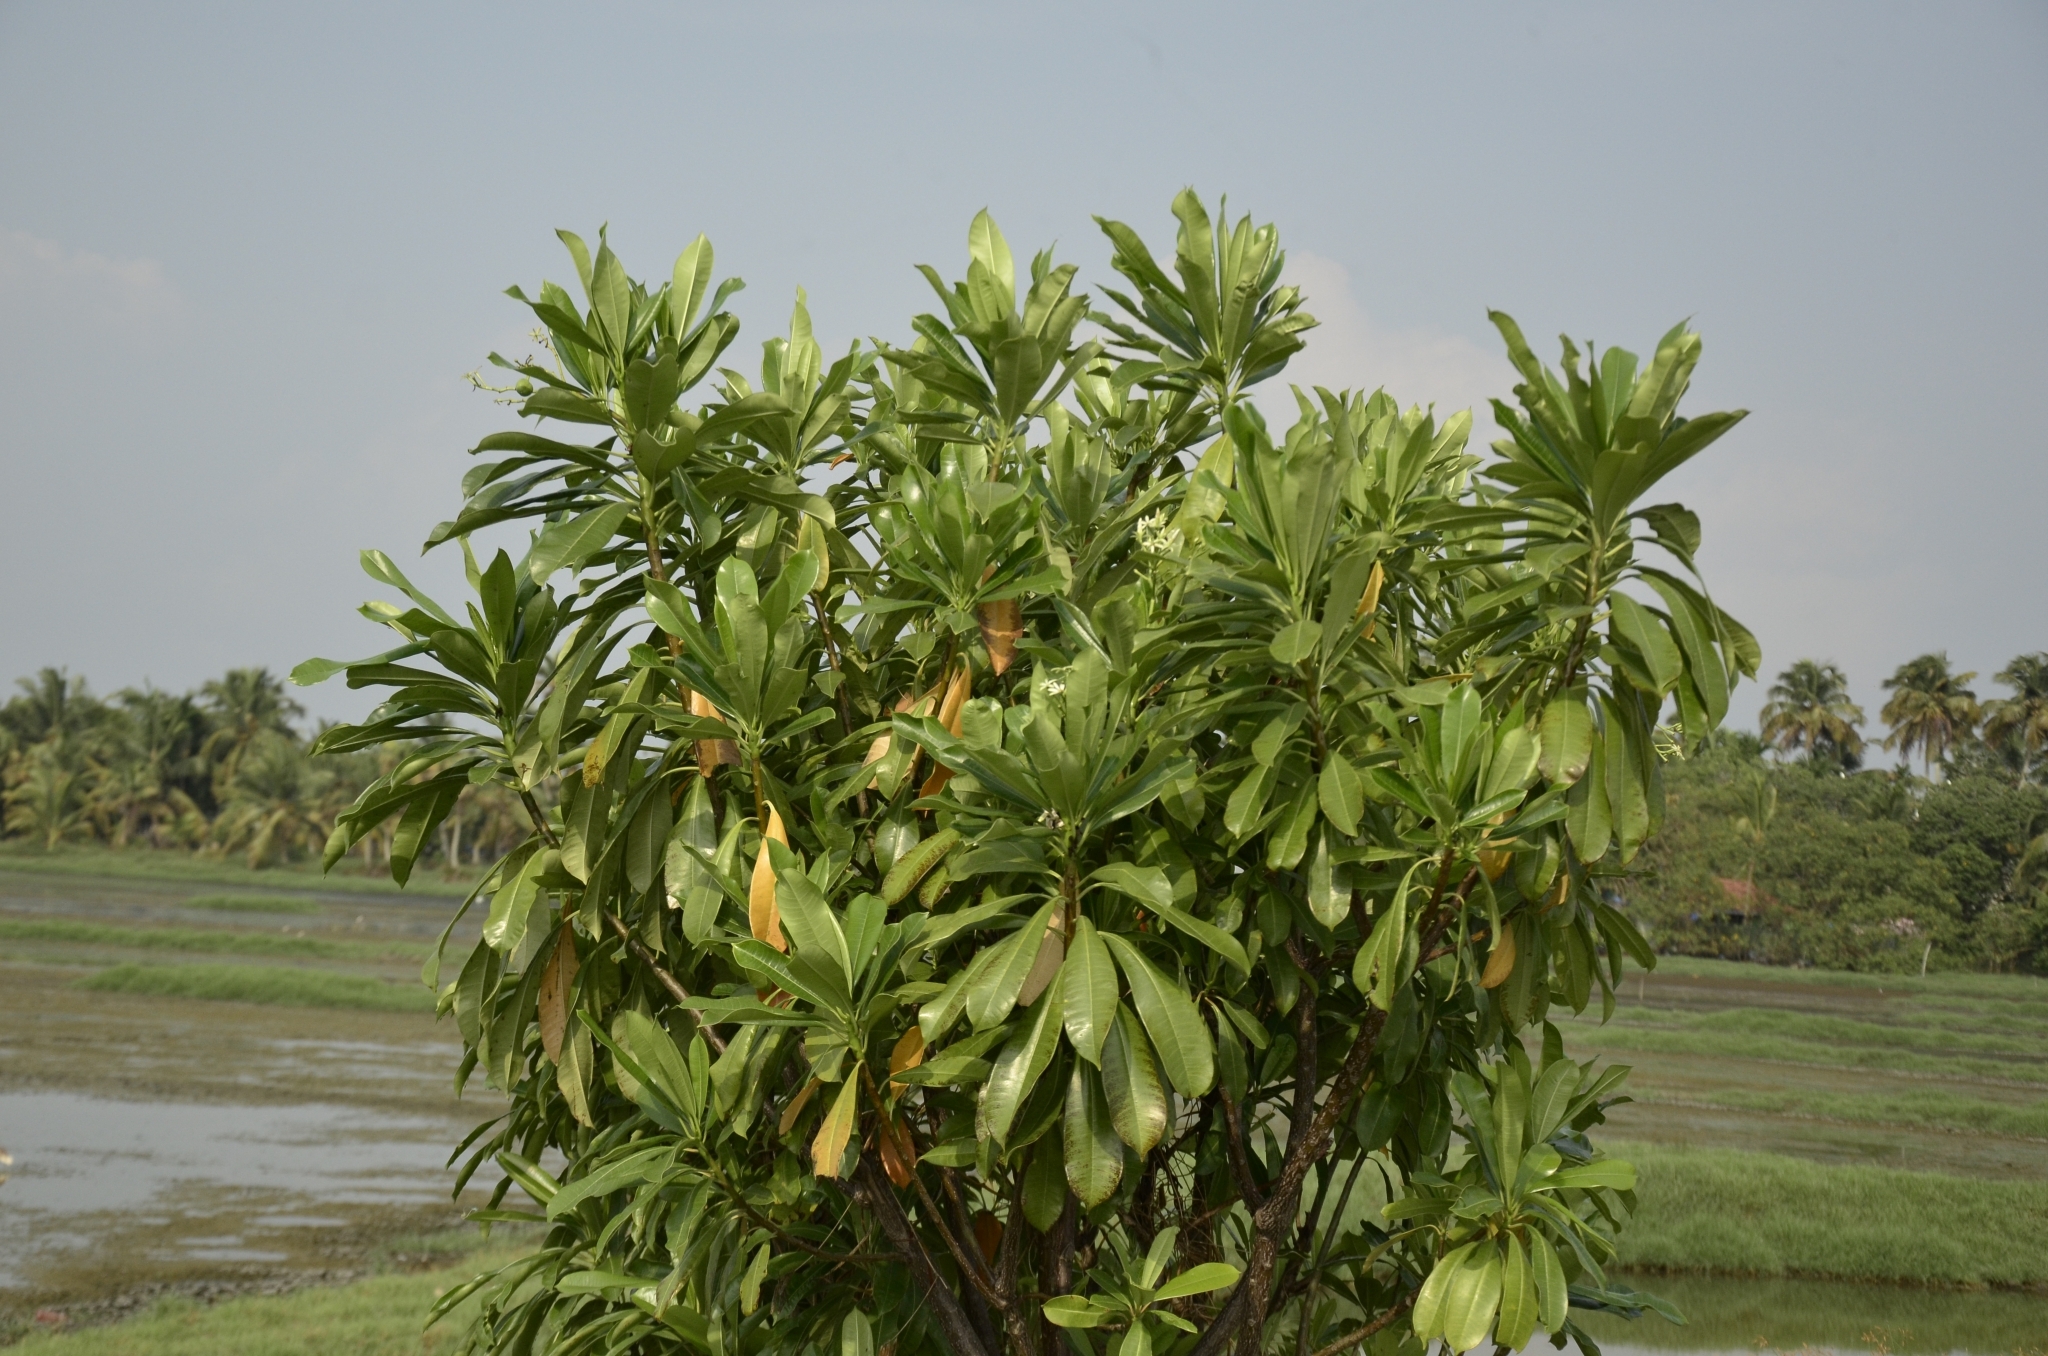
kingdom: Plantae
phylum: Tracheophyta
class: Magnoliopsida
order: Gentianales
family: Apocynaceae
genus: Cerbera
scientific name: Cerbera odollam
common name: Pong-pong
